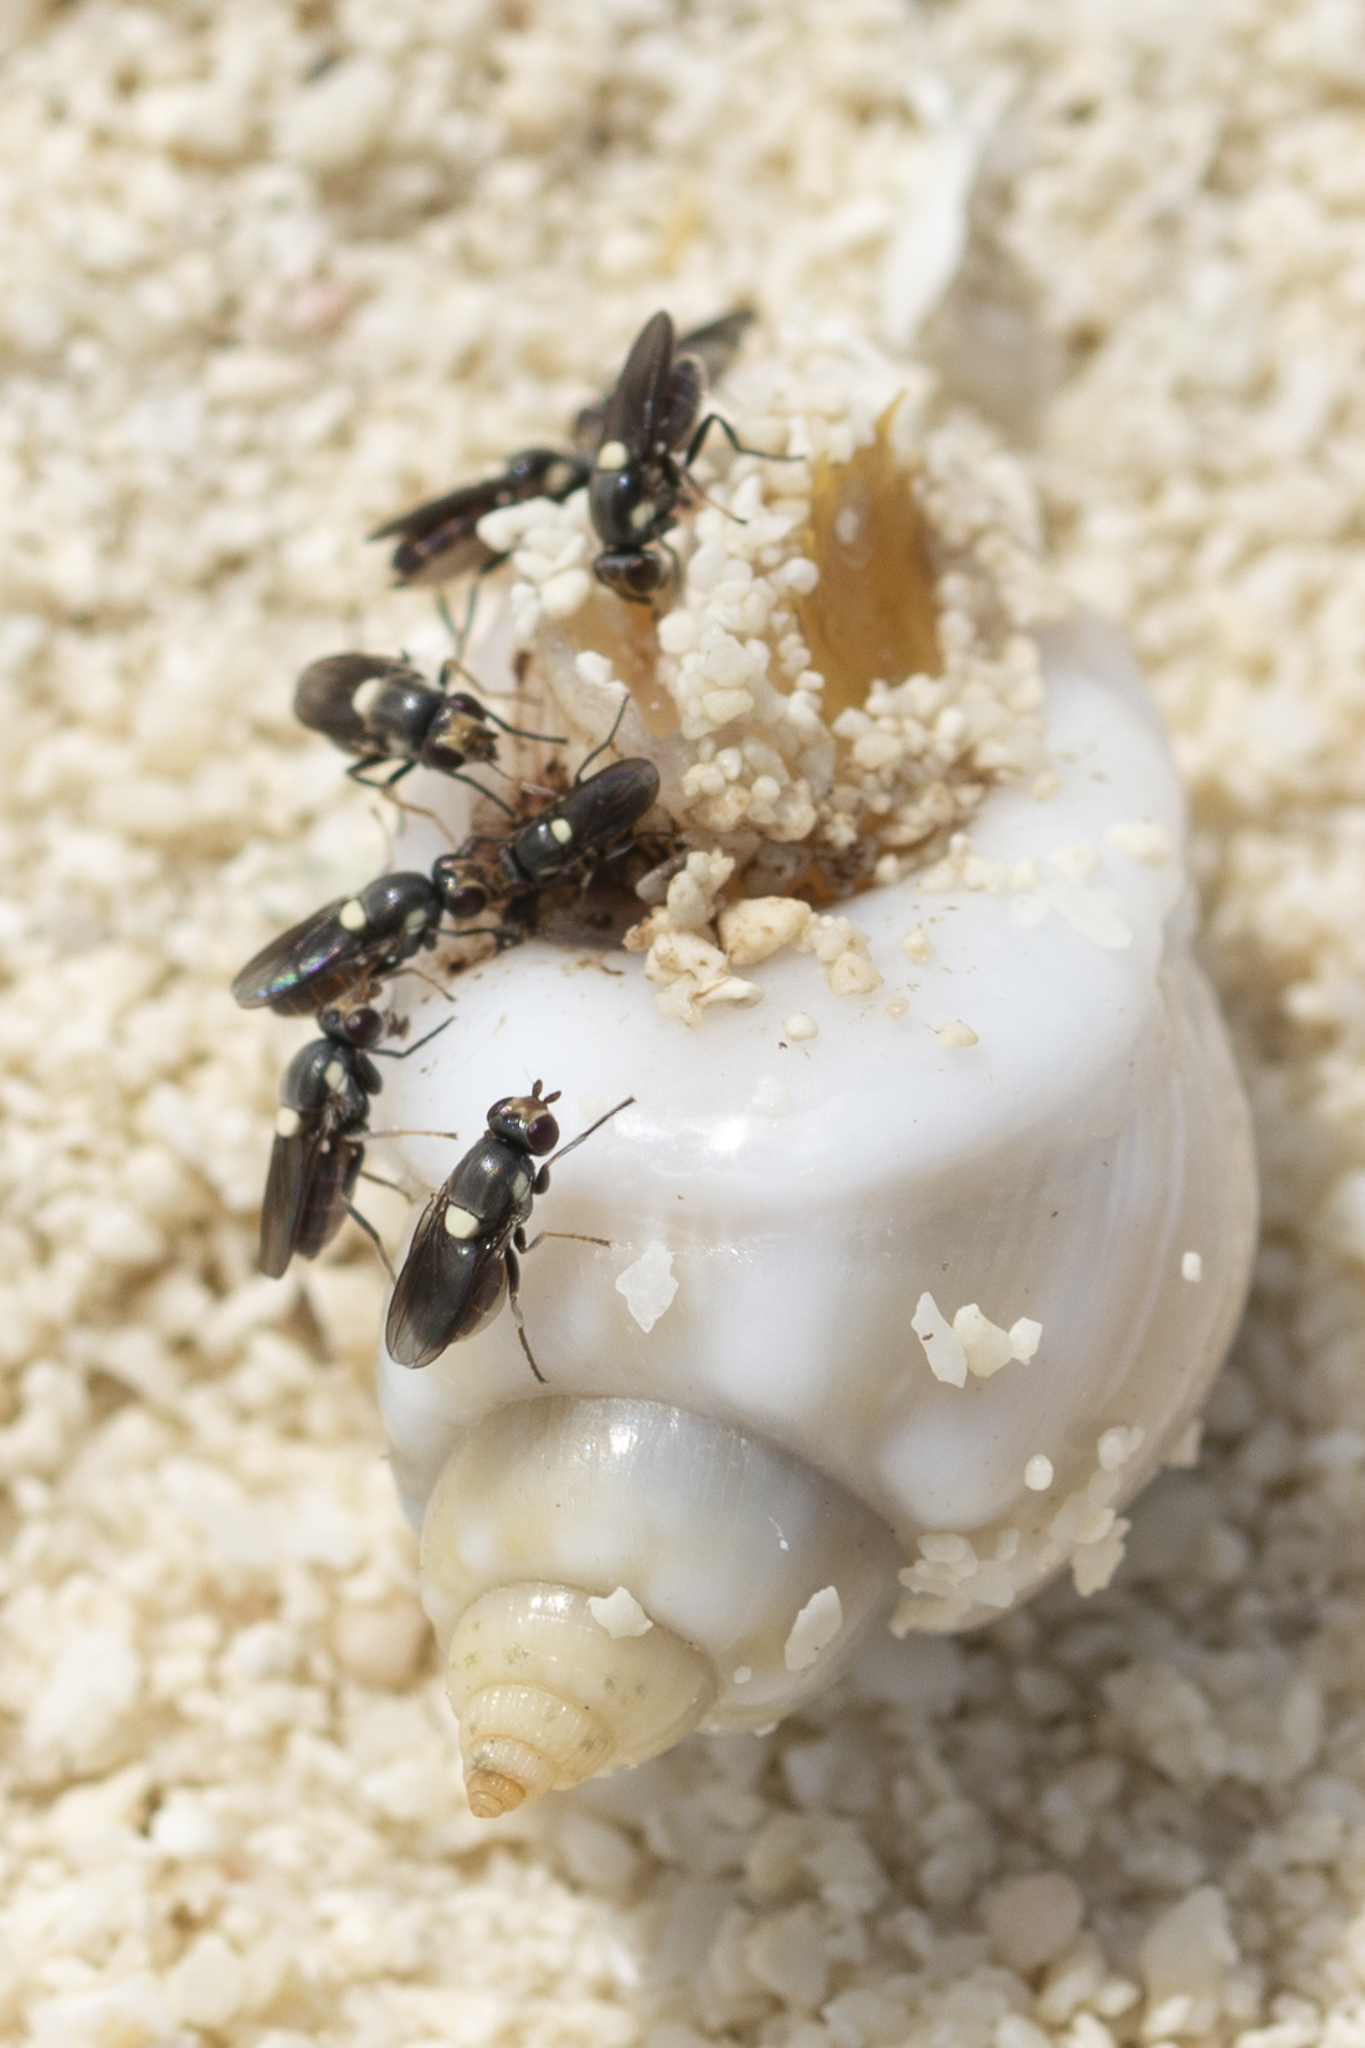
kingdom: Animalia
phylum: Mollusca
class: Gastropoda
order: Neogastropoda
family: Nassariidae
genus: Nassarius
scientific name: Nassarius coronatus
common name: Crowned nassa
